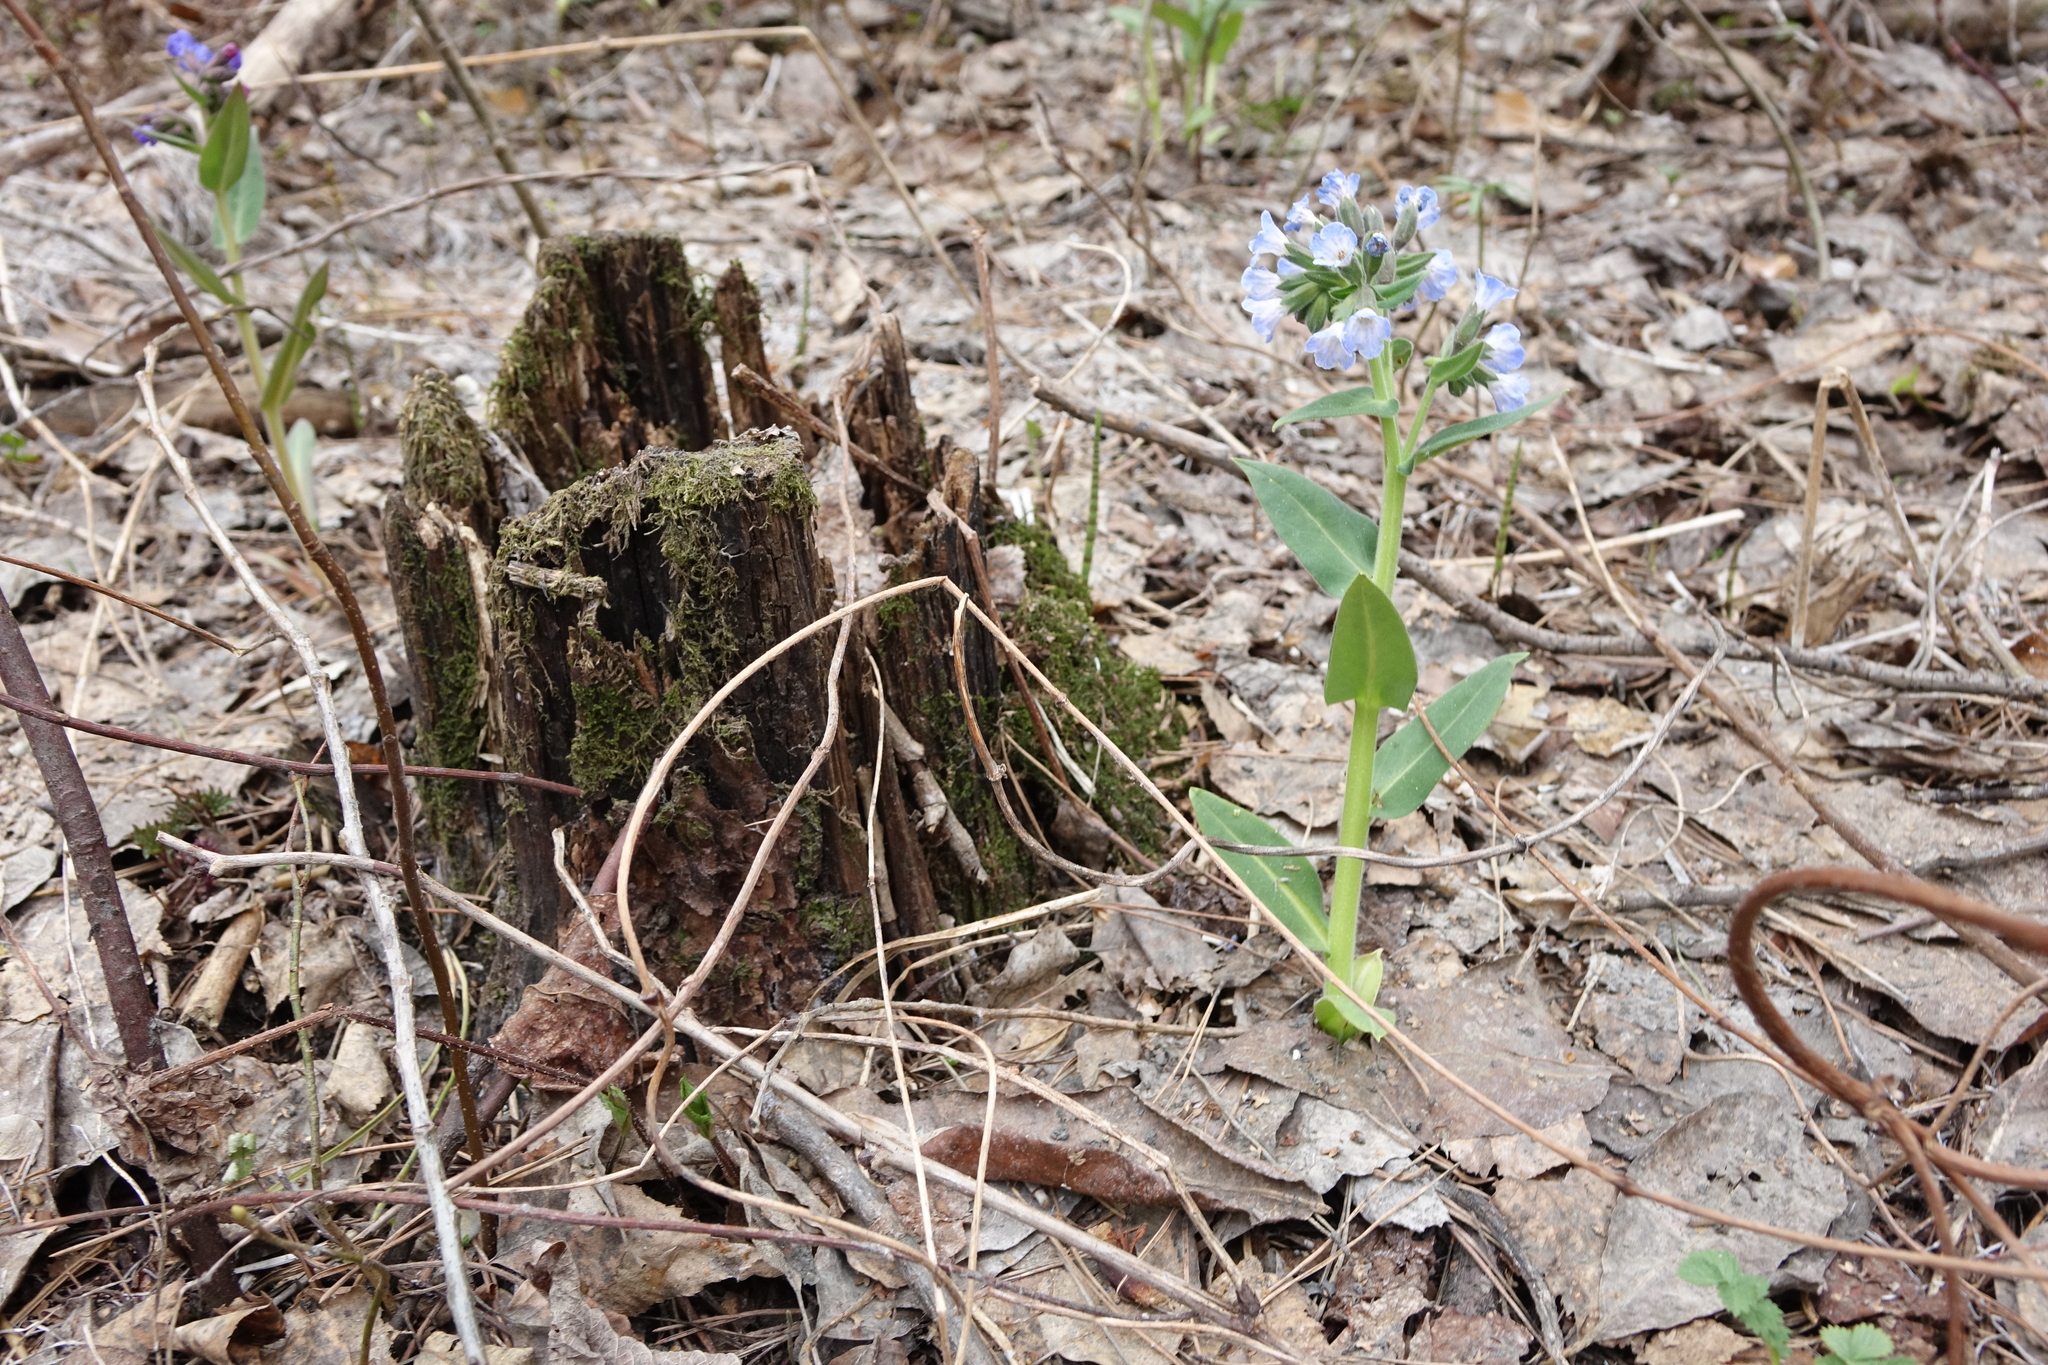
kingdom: Plantae
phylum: Tracheophyta
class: Magnoliopsida
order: Boraginales
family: Boraginaceae
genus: Pulmonaria
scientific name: Pulmonaria mollis
